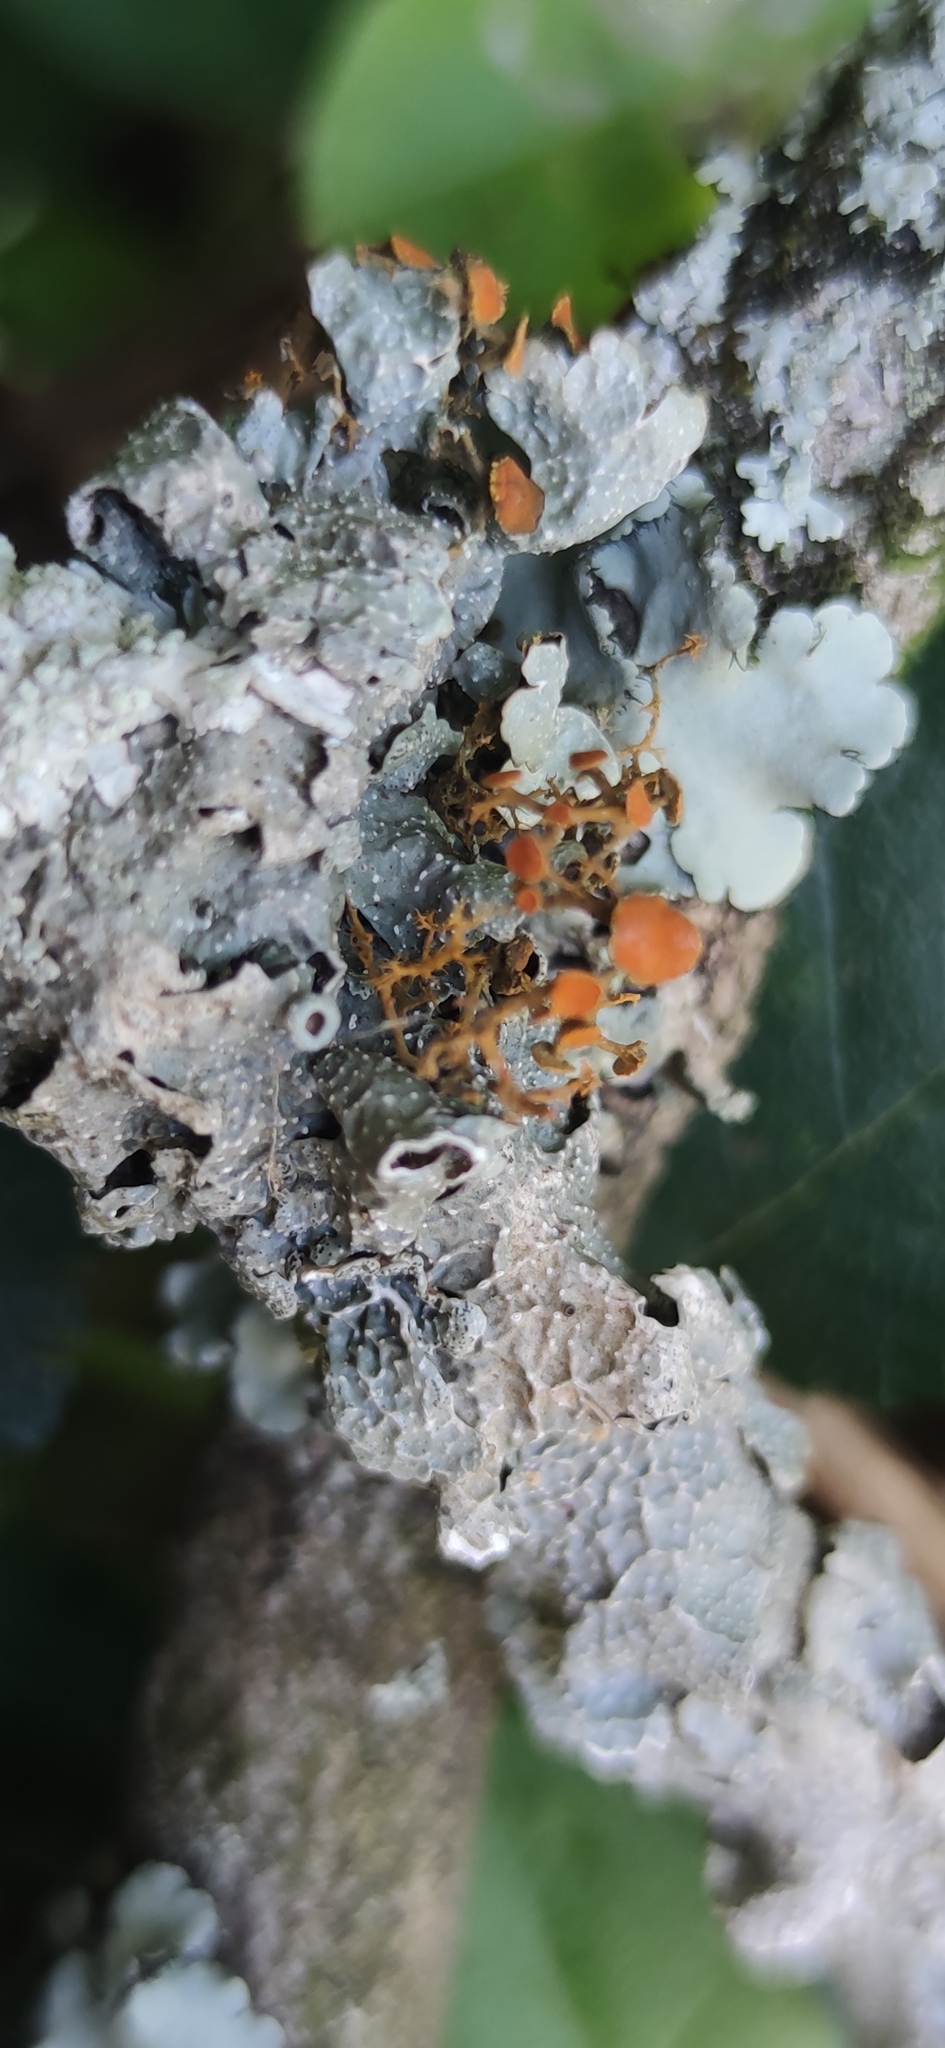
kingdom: Fungi
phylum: Ascomycota
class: Lecanoromycetes
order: Teloschistales
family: Teloschistaceae
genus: Teloschistes
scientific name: Teloschistes exilis
